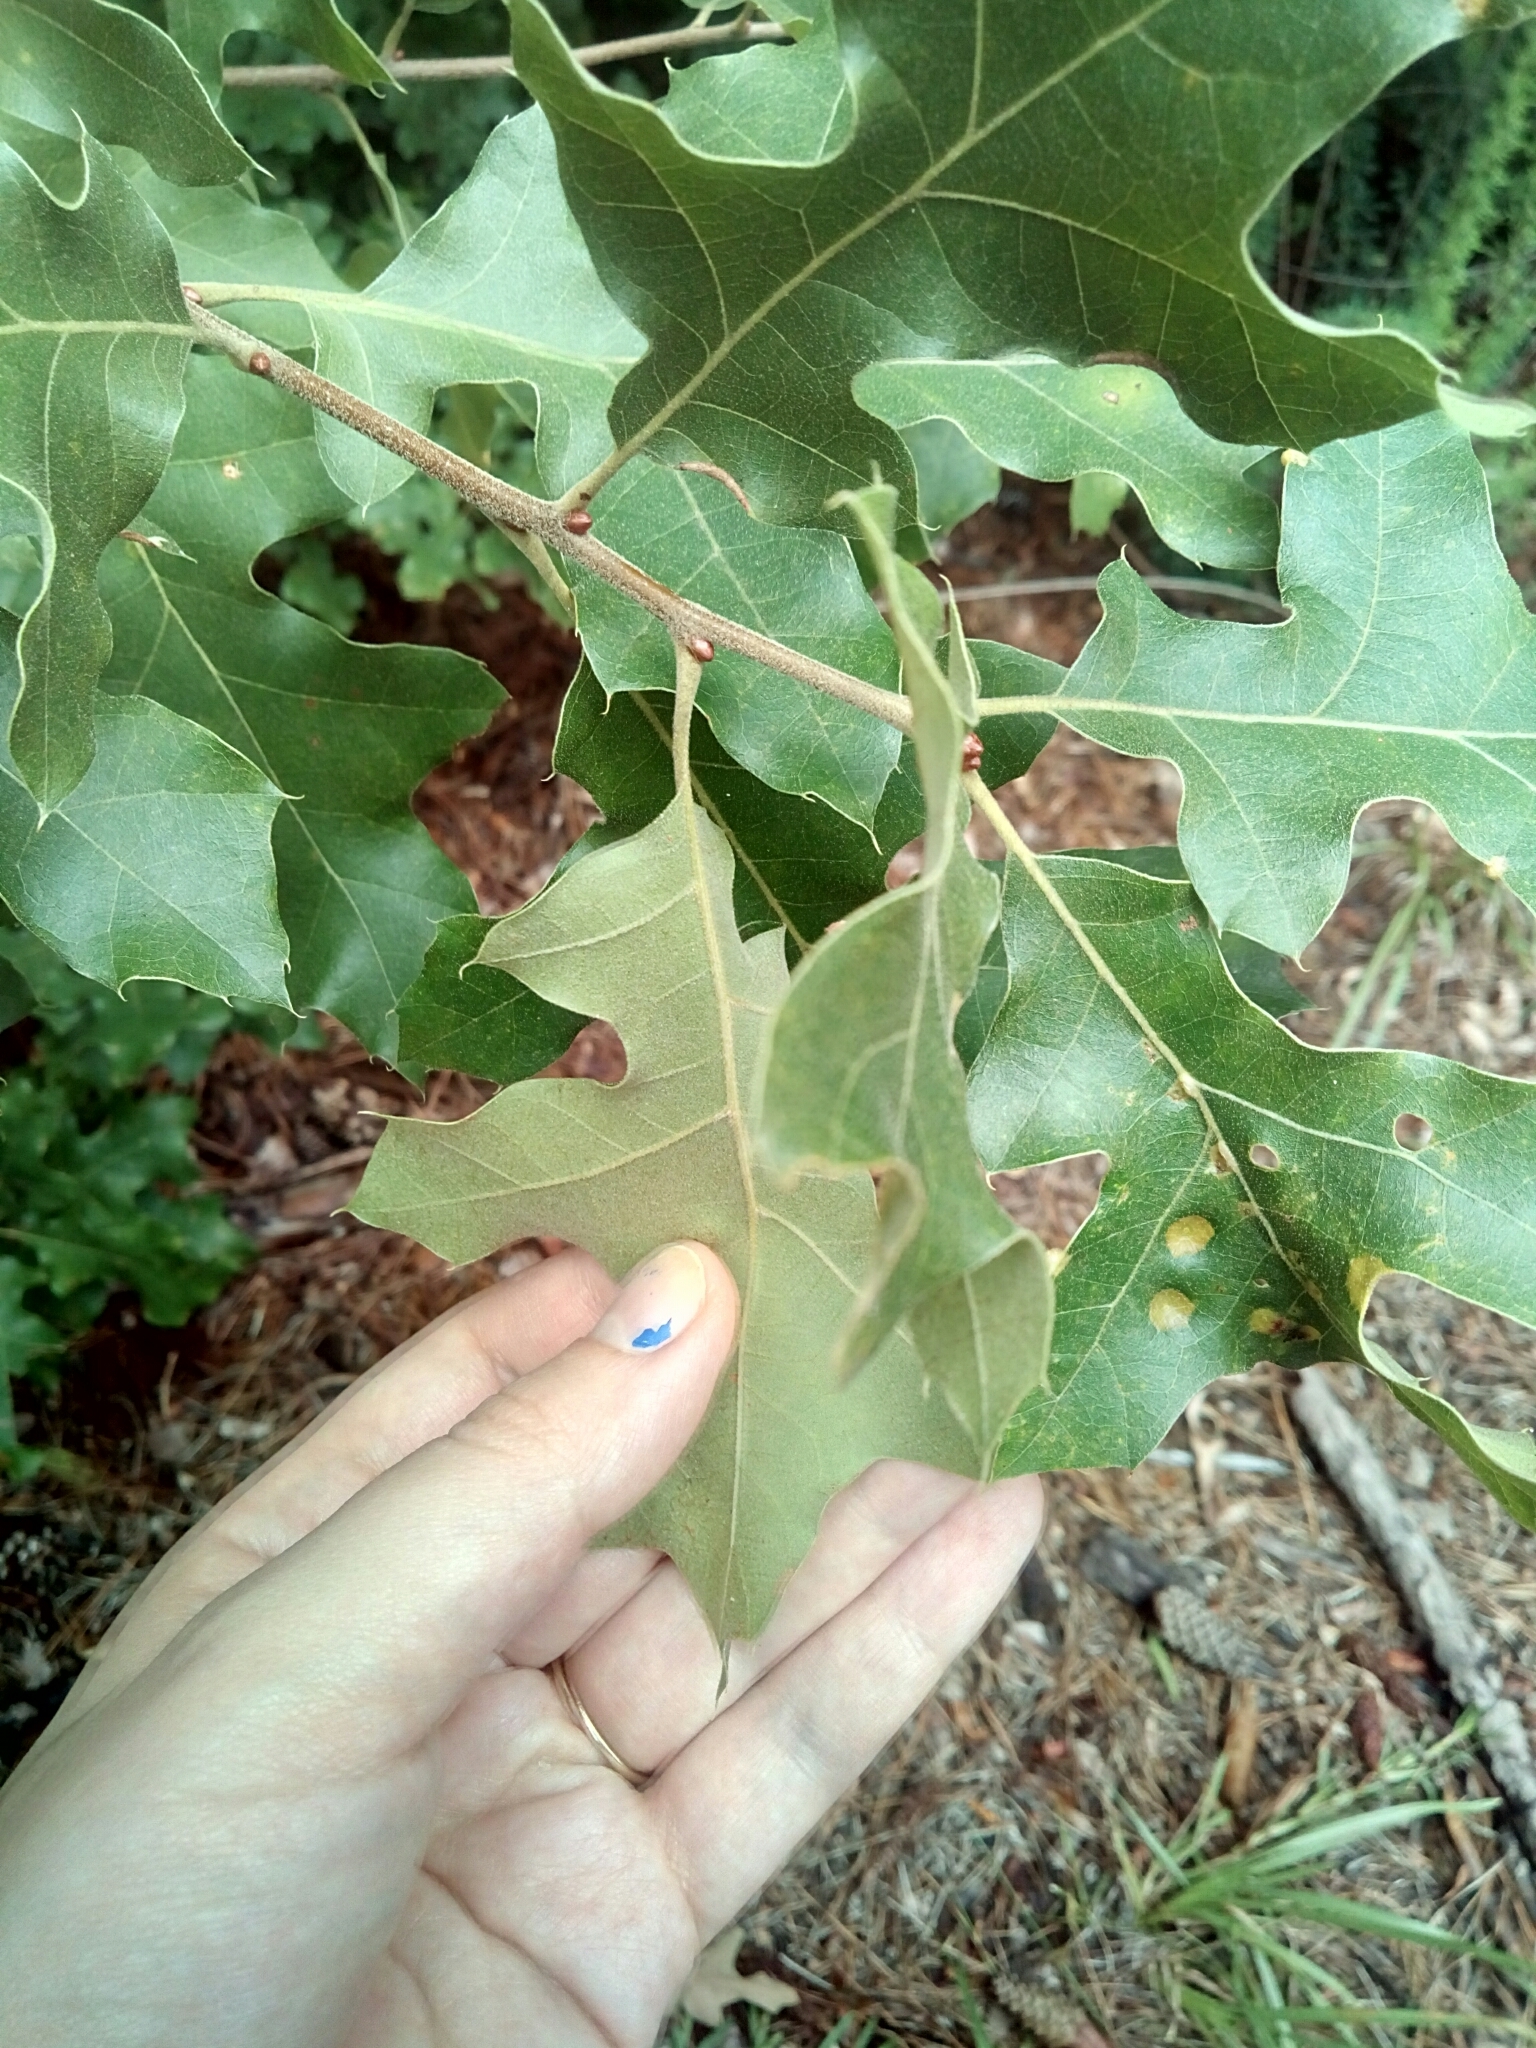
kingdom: Plantae
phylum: Tracheophyta
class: Magnoliopsida
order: Fagales
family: Fagaceae
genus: Quercus
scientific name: Quercus pagoda
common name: Cherrybark oak
